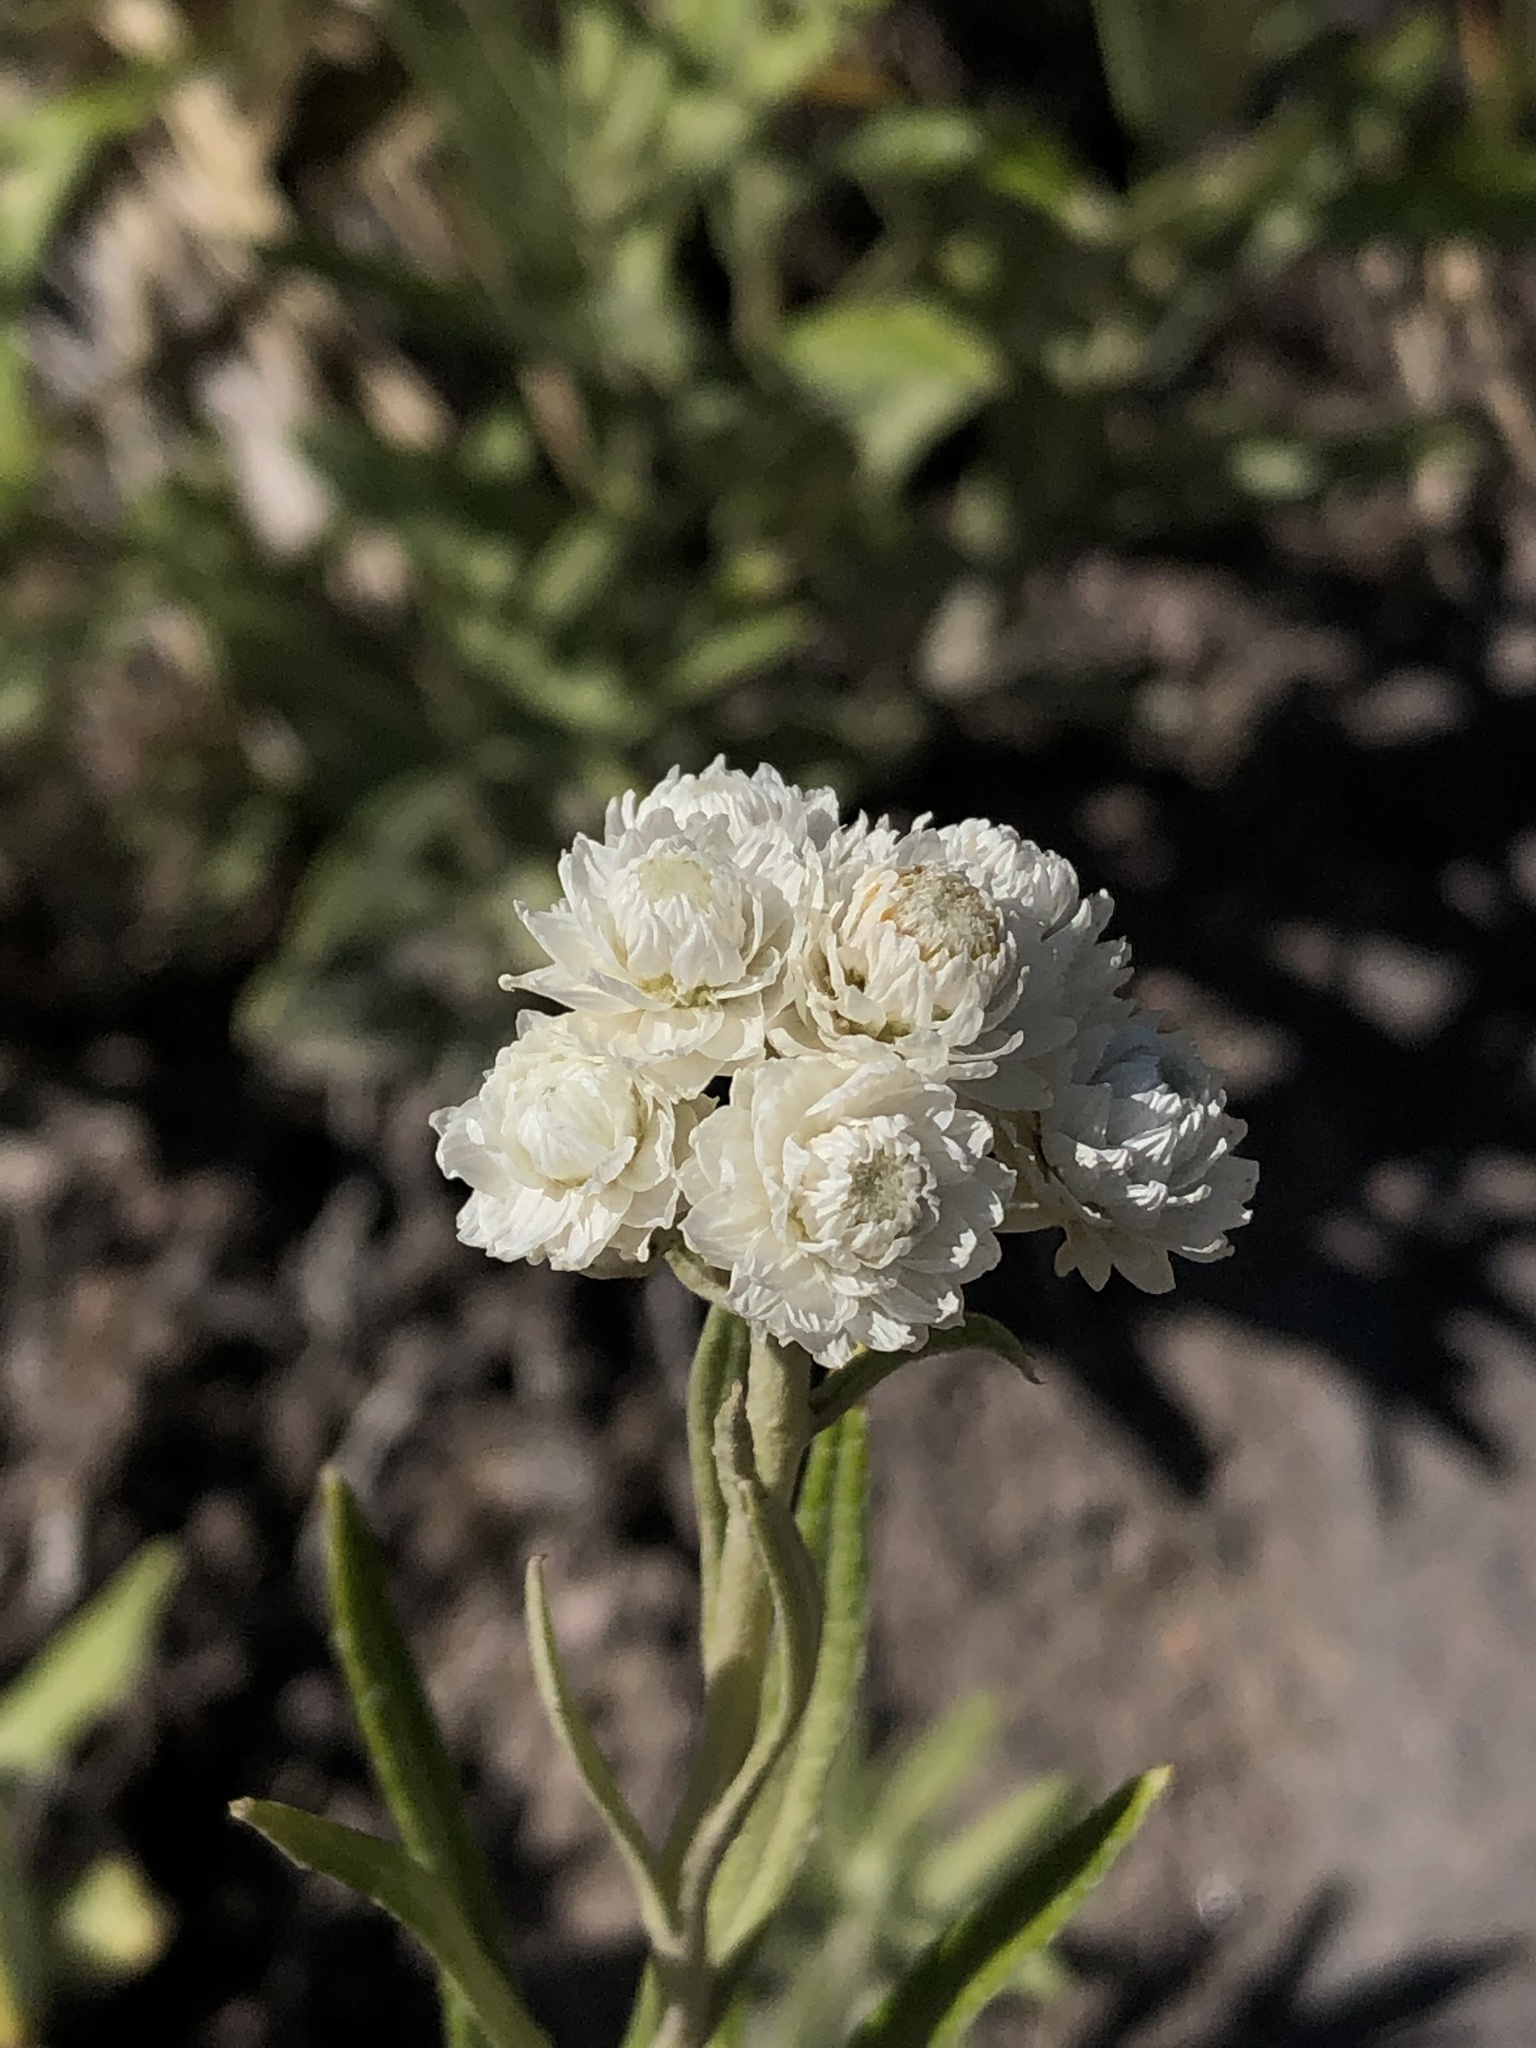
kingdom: Plantae
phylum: Tracheophyta
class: Magnoliopsida
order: Asterales
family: Asteraceae
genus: Anaphalis
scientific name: Anaphalis margaritacea
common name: Pearly everlasting
